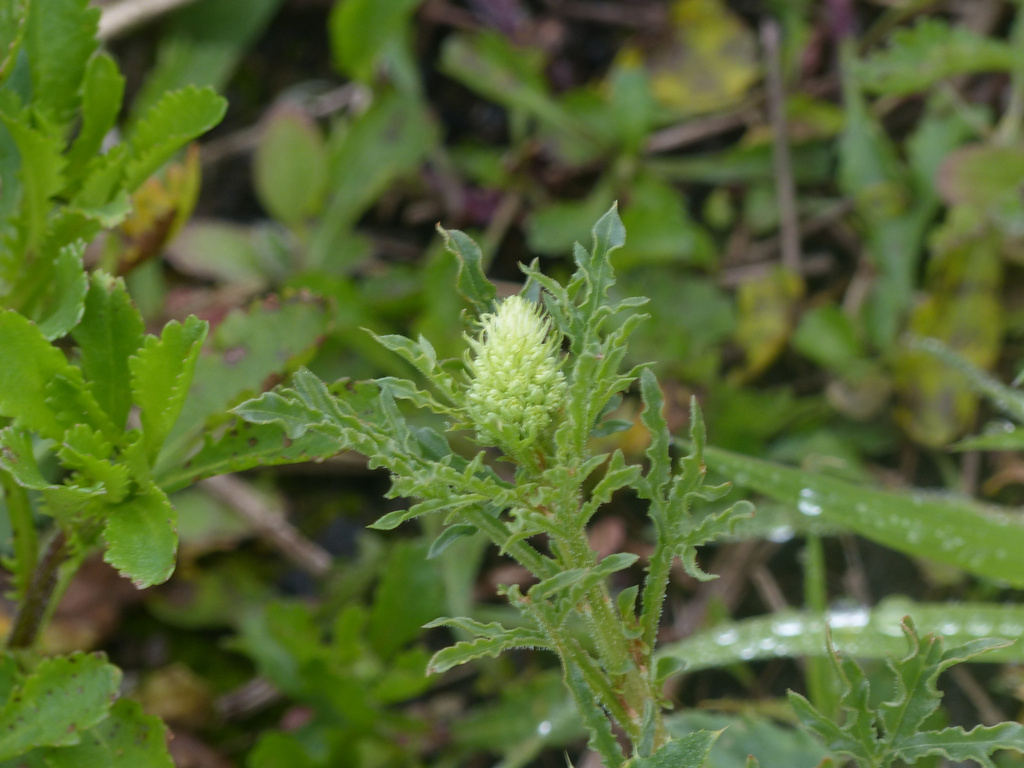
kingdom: Plantae
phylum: Tracheophyta
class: Magnoliopsida
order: Brassicales
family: Resedaceae
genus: Reseda
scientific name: Reseda lutea
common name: Wild mignonette
